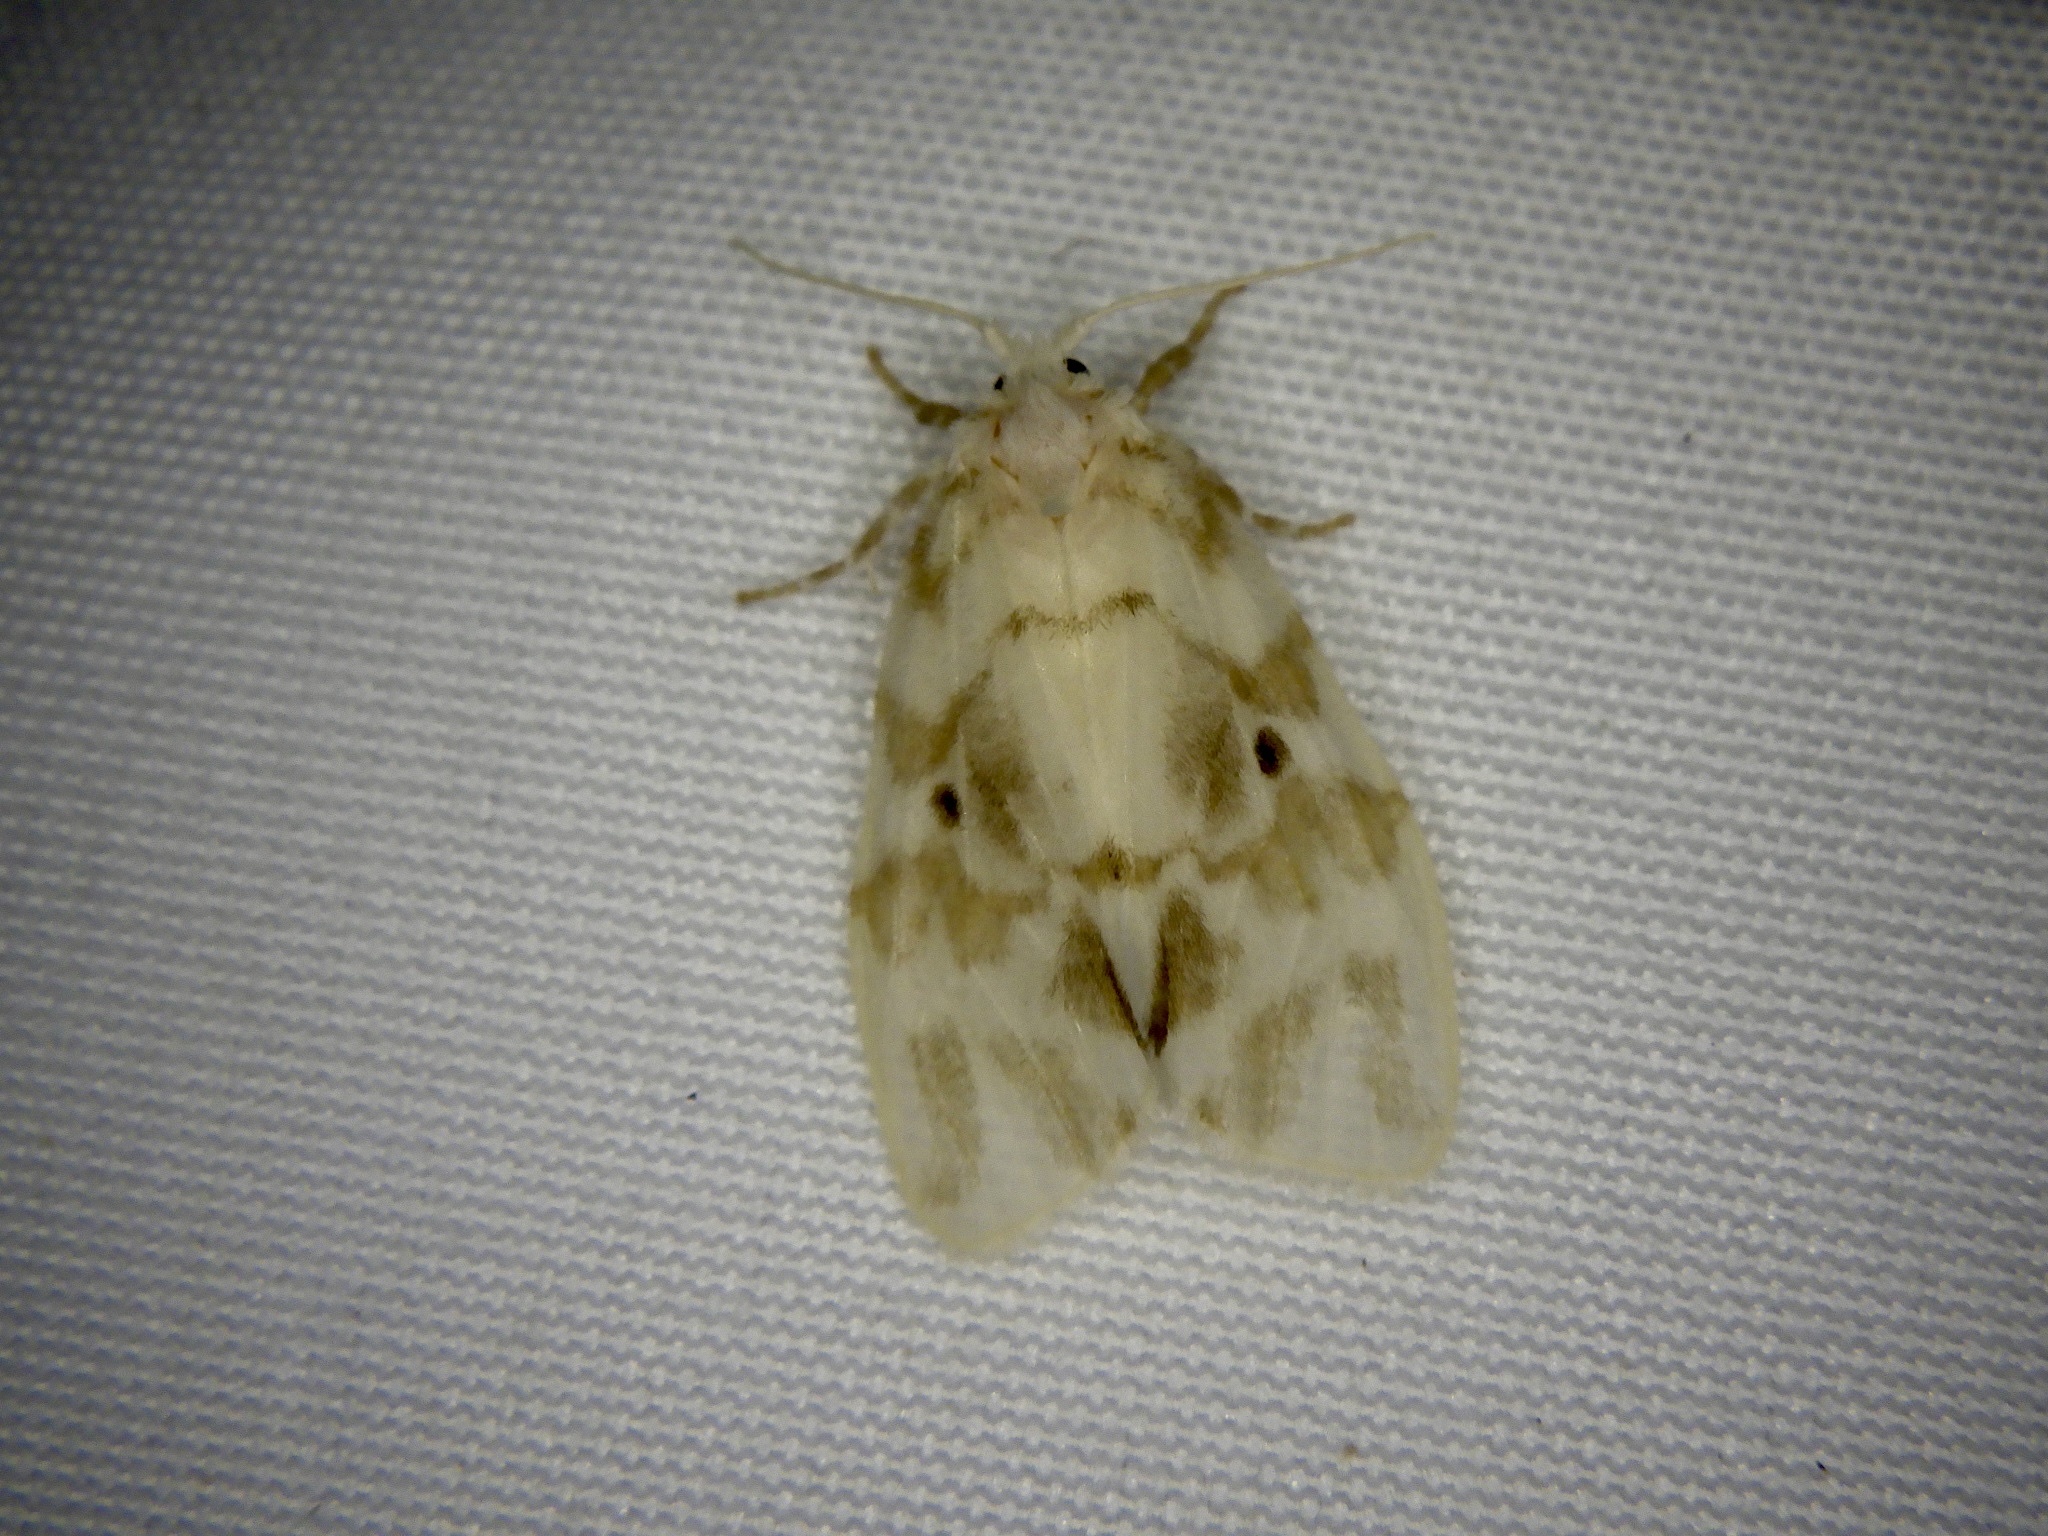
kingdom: Animalia
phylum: Arthropoda
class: Insecta
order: Lepidoptera
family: Erebidae
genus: Nudaria
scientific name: Nudaria ranruna
